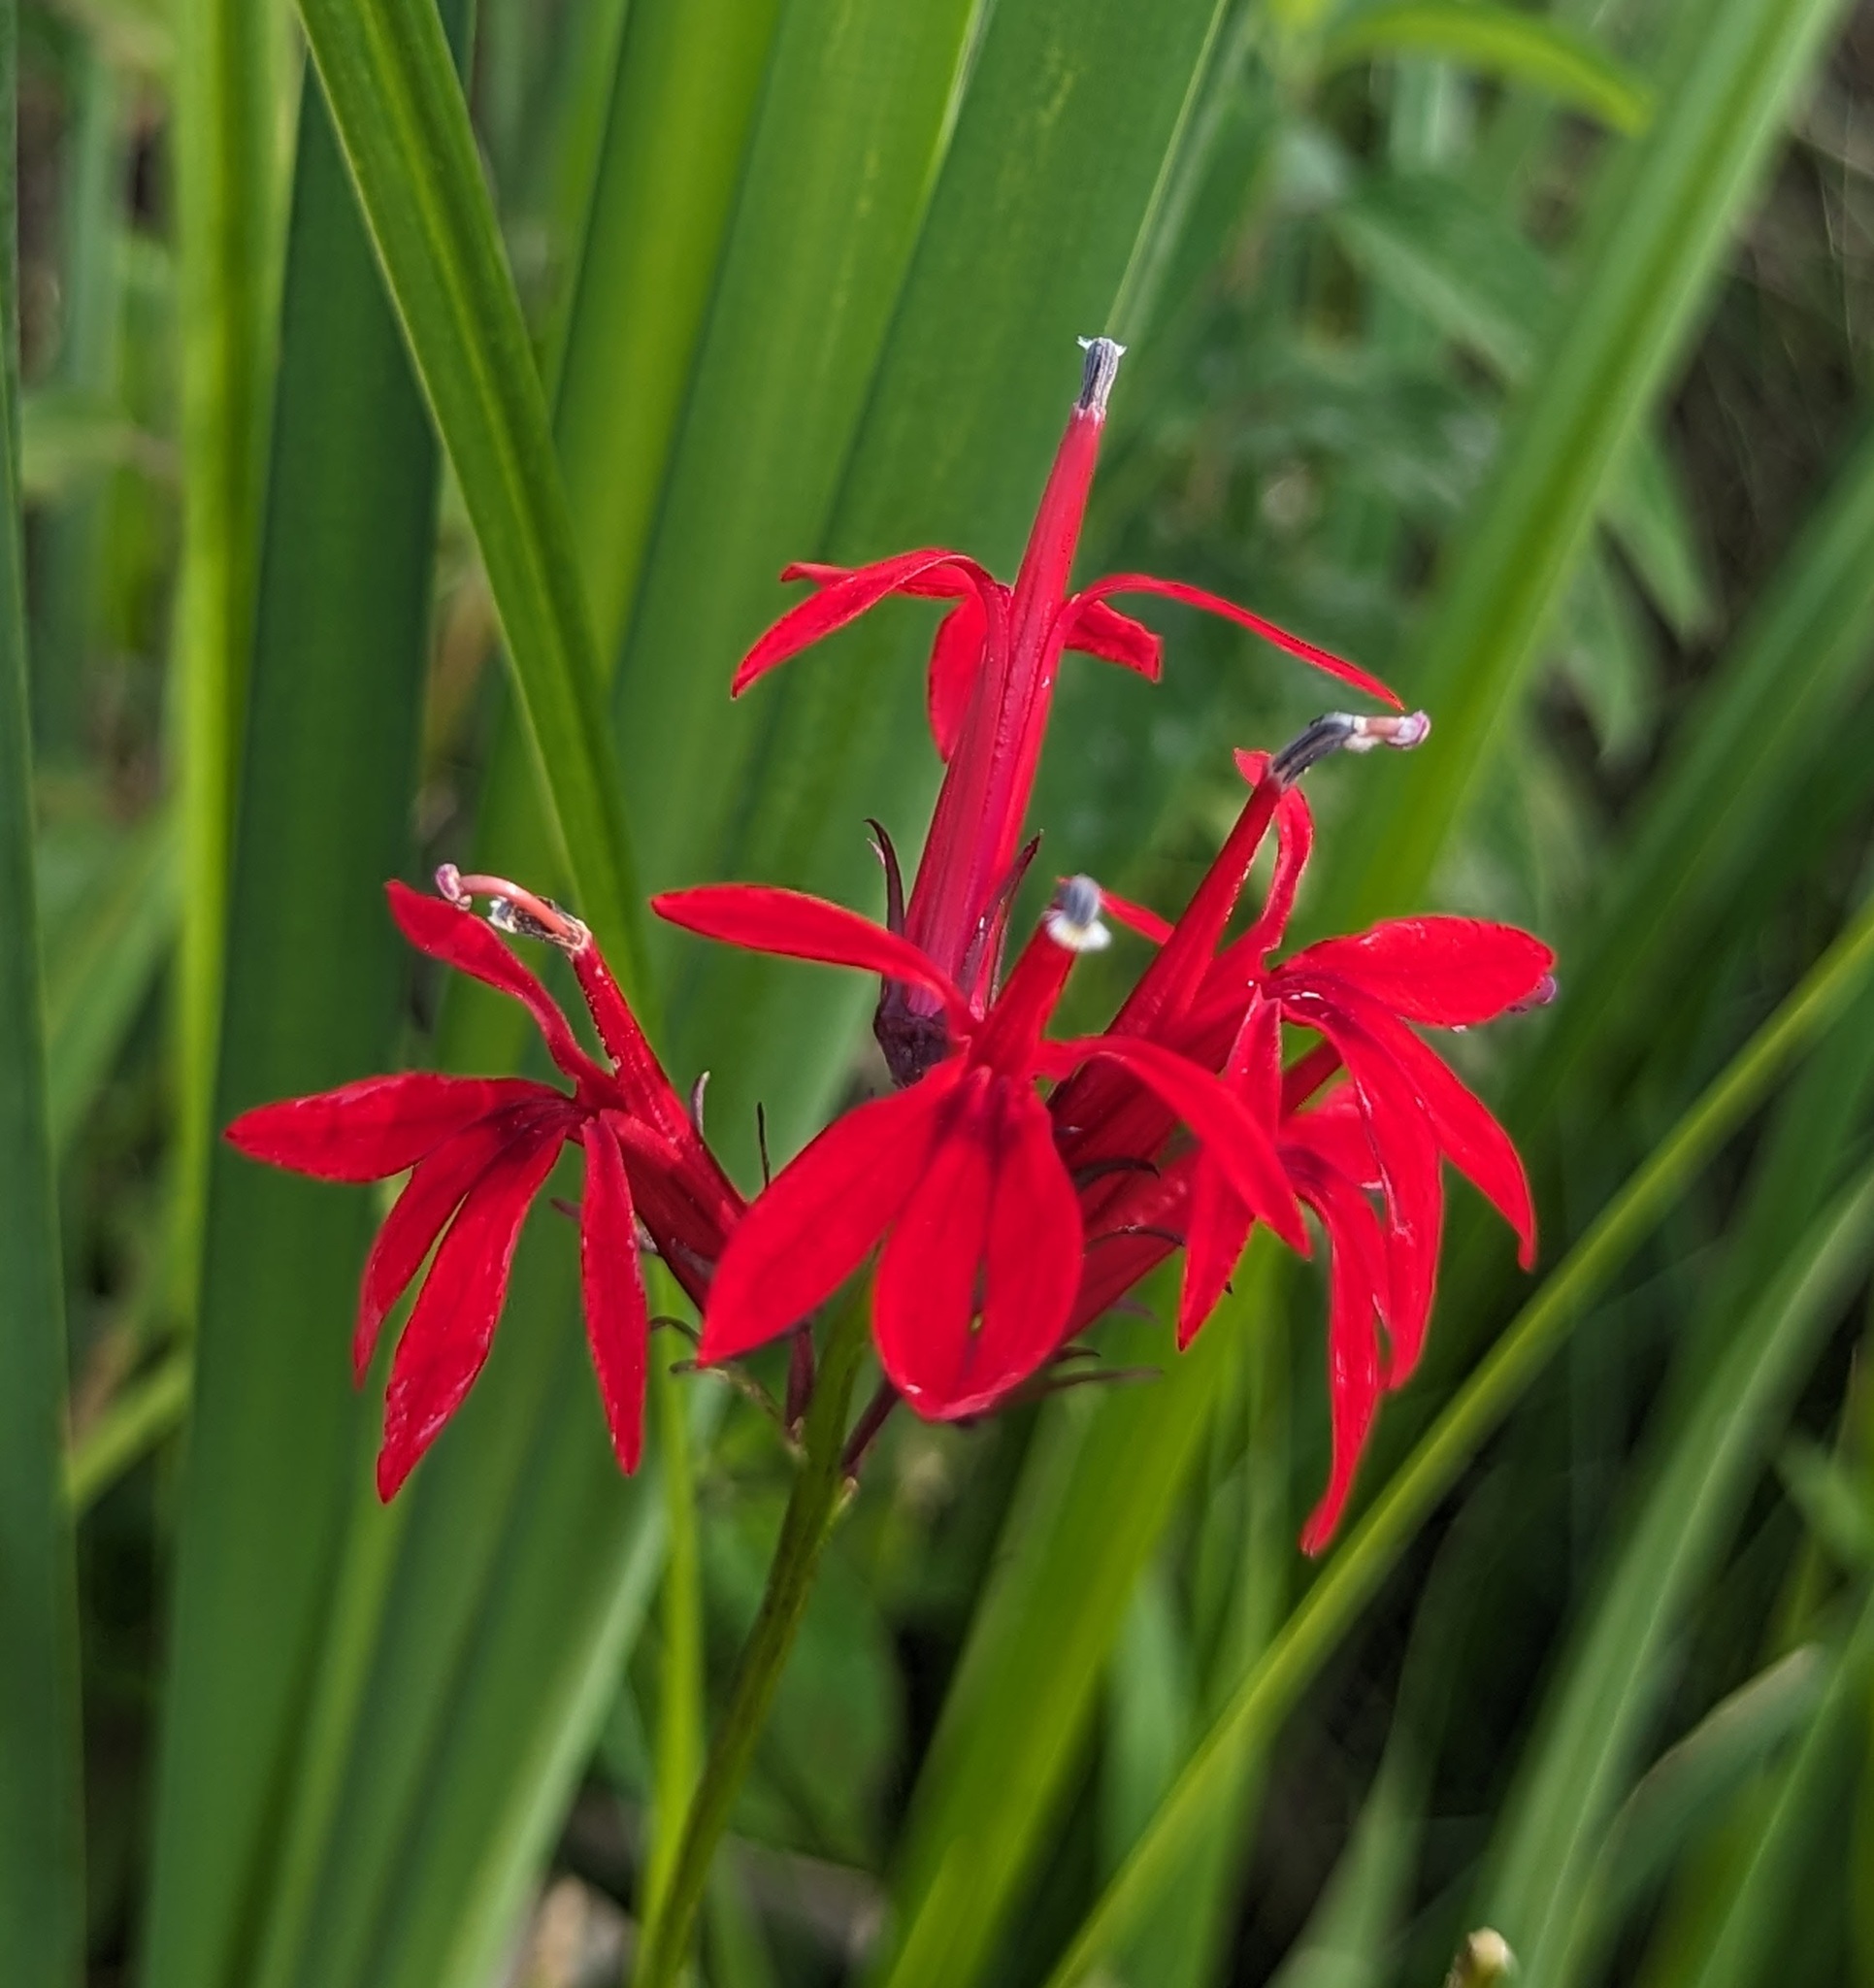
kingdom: Plantae
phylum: Tracheophyta
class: Magnoliopsida
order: Asterales
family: Campanulaceae
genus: Lobelia
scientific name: Lobelia cardinalis
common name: Cardinal flower
